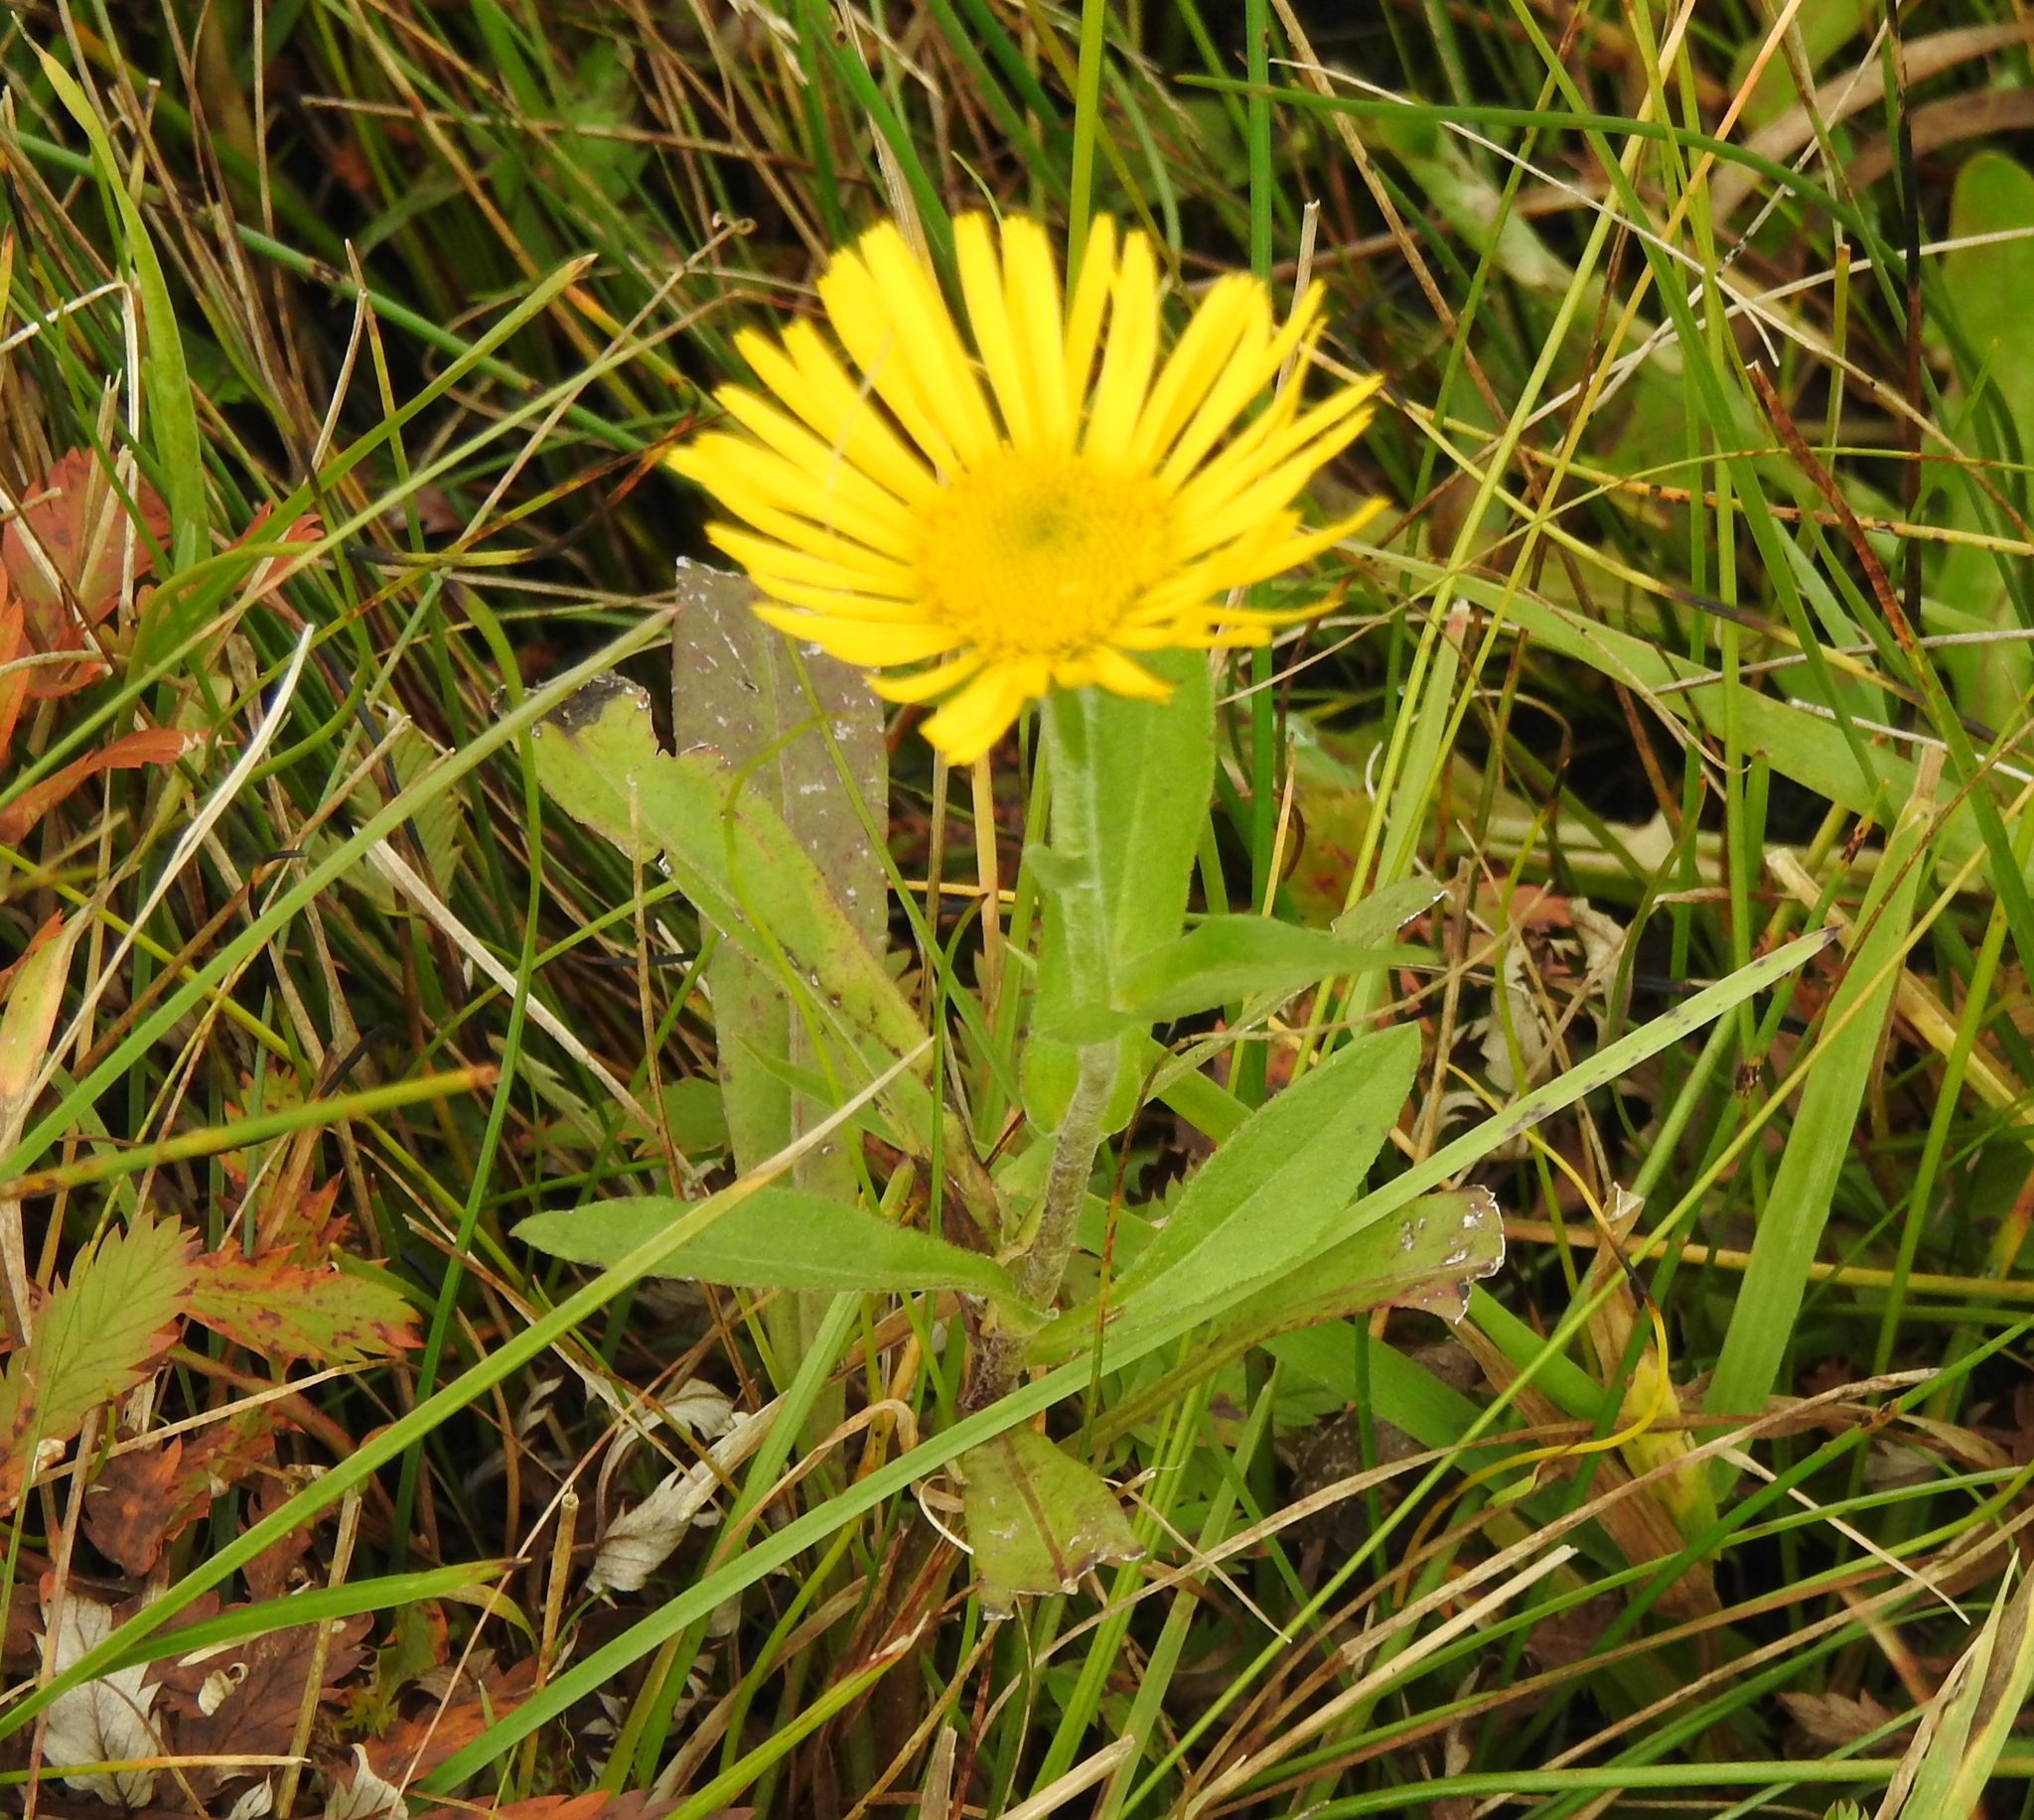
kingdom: Plantae
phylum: Tracheophyta
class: Magnoliopsida
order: Asterales
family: Asteraceae
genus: Pentanema
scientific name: Pentanema britannicum
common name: British elecampane
